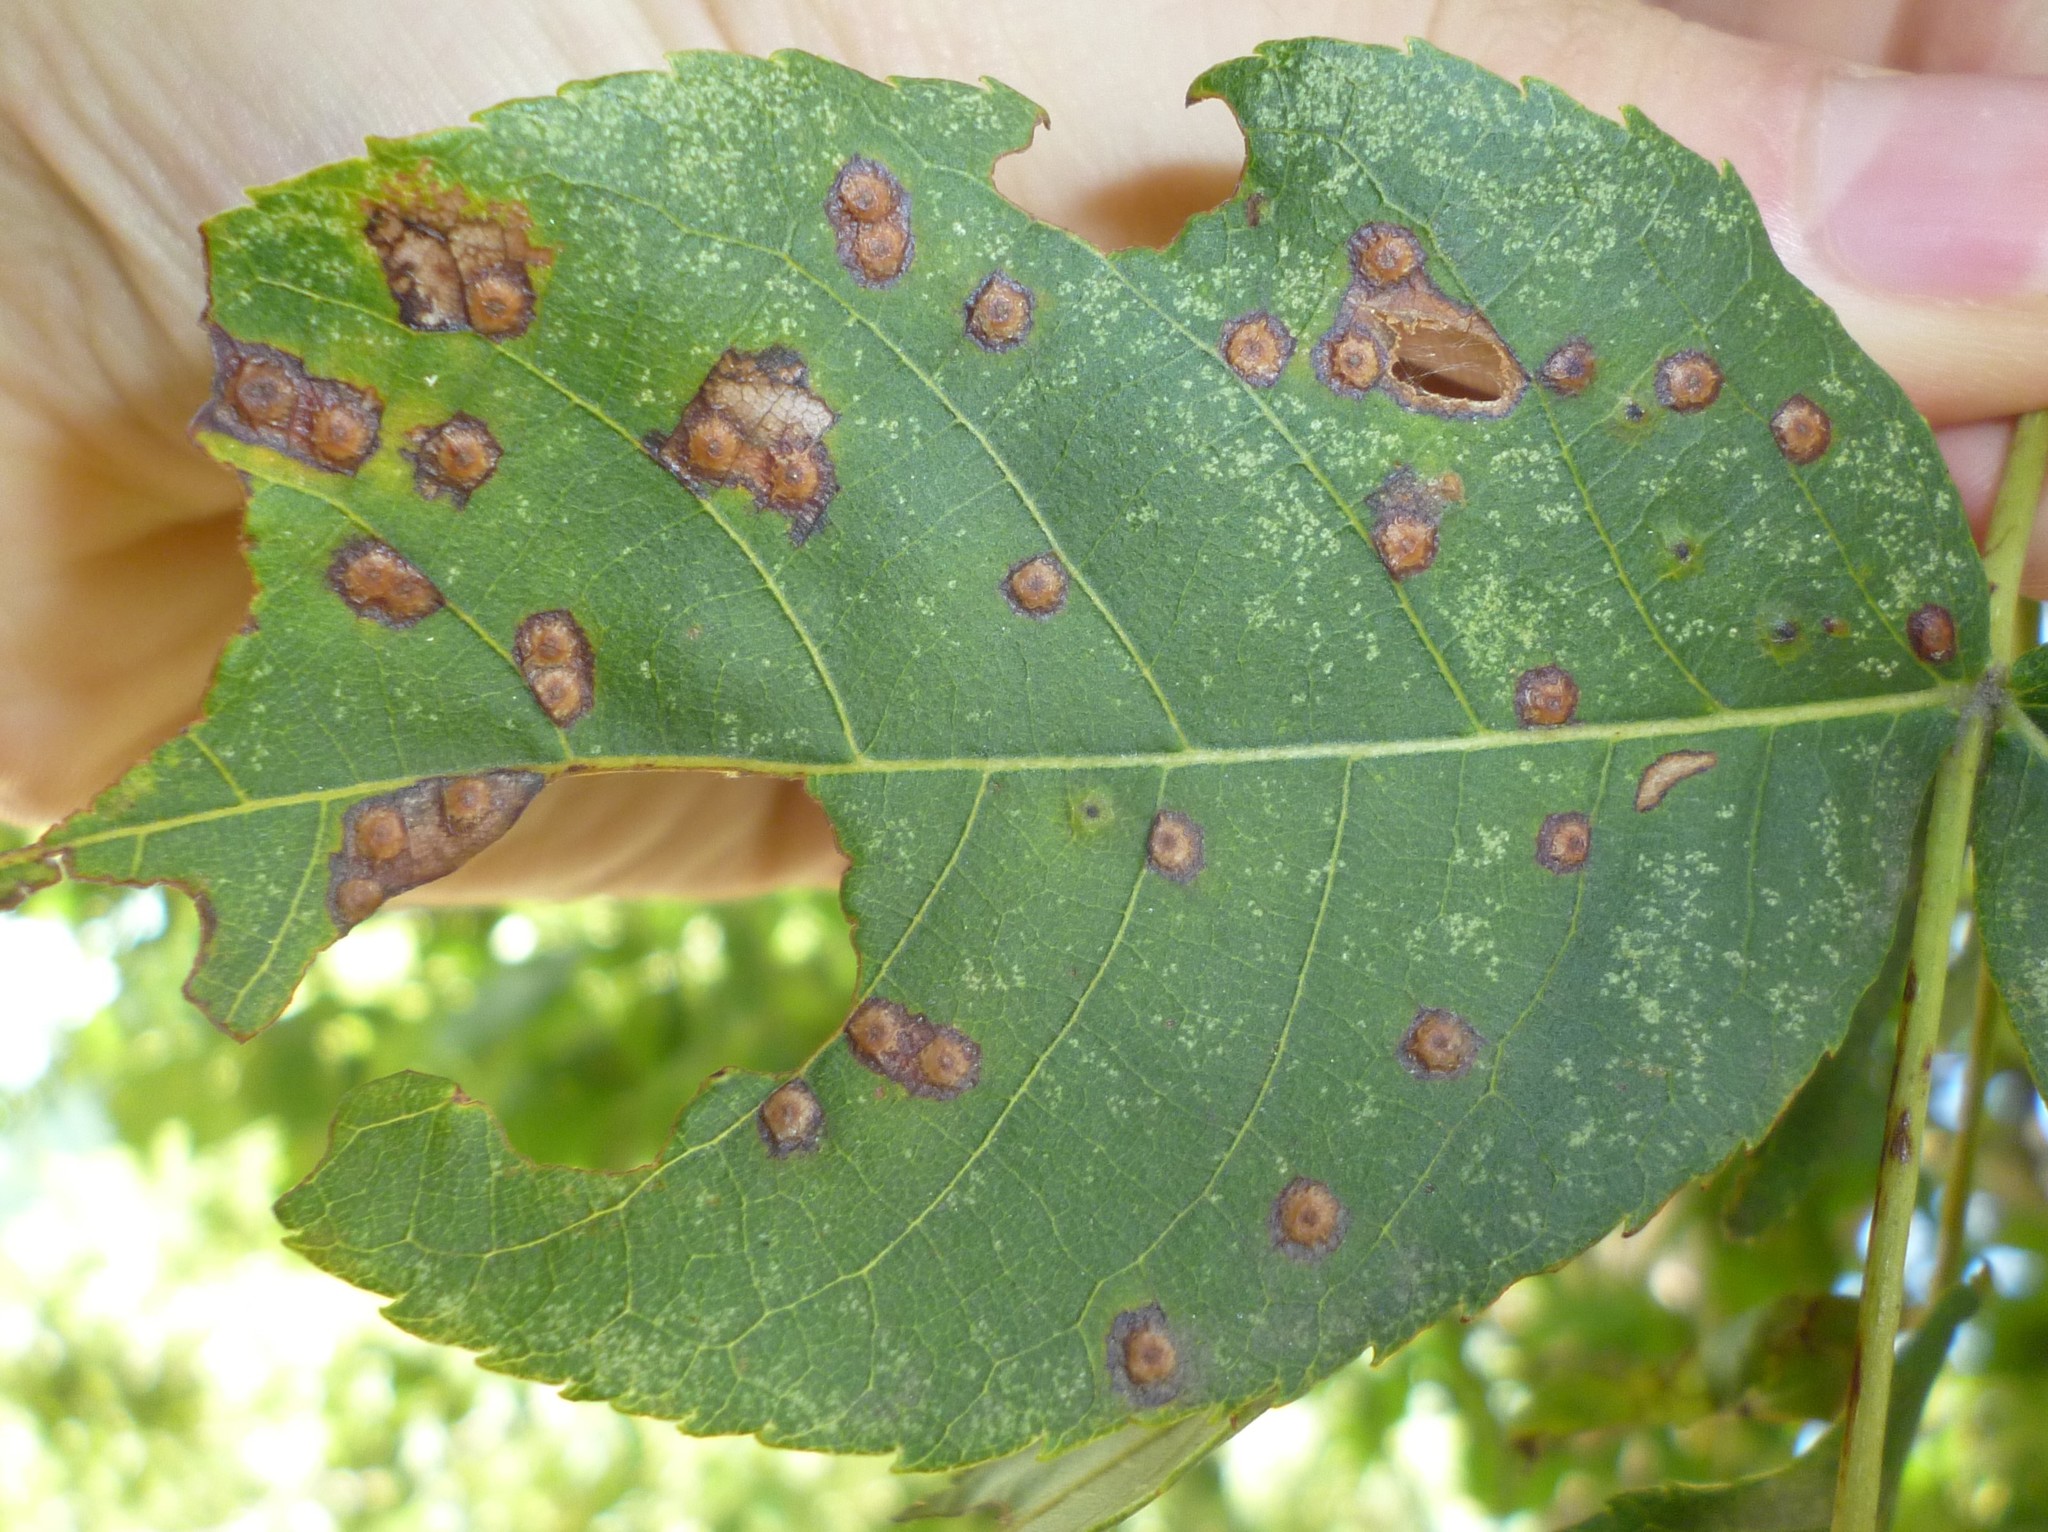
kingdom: Animalia
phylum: Arthropoda
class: Insecta
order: Diptera
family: Cecidomyiidae
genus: Caryomyia
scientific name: Caryomyia tubicola
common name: Hickory bullet gall midge
